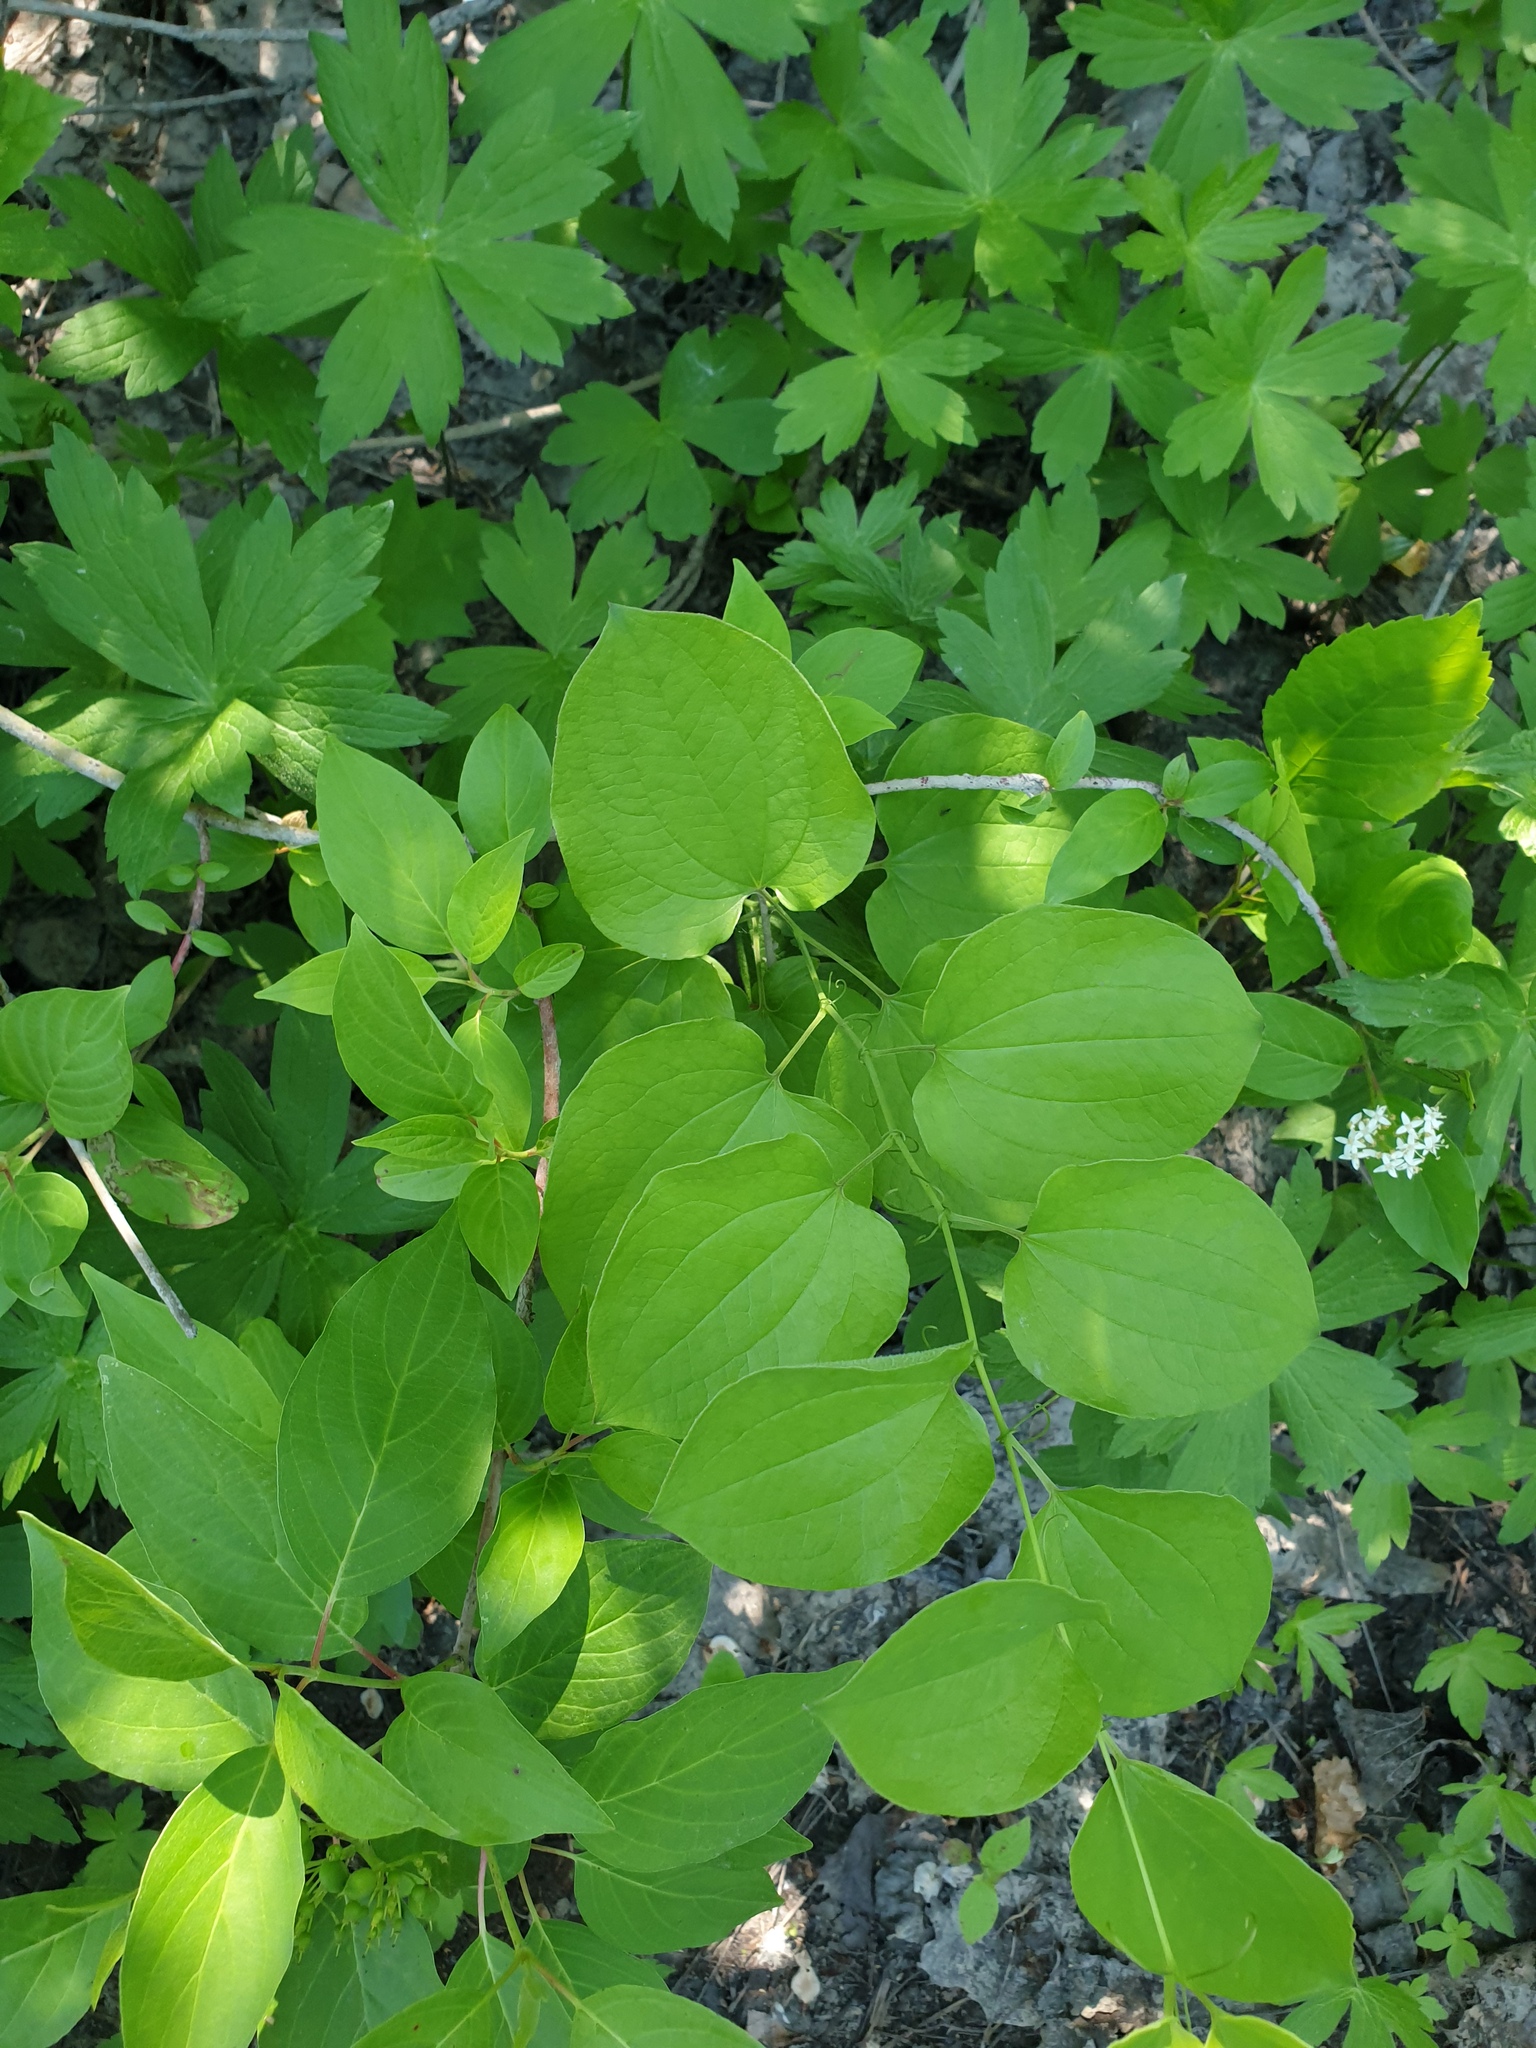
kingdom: Plantae
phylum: Tracheophyta
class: Liliopsida
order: Liliales
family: Smilacaceae
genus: Smilax
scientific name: Smilax lasioneura
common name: Blue ridge carrionflower
